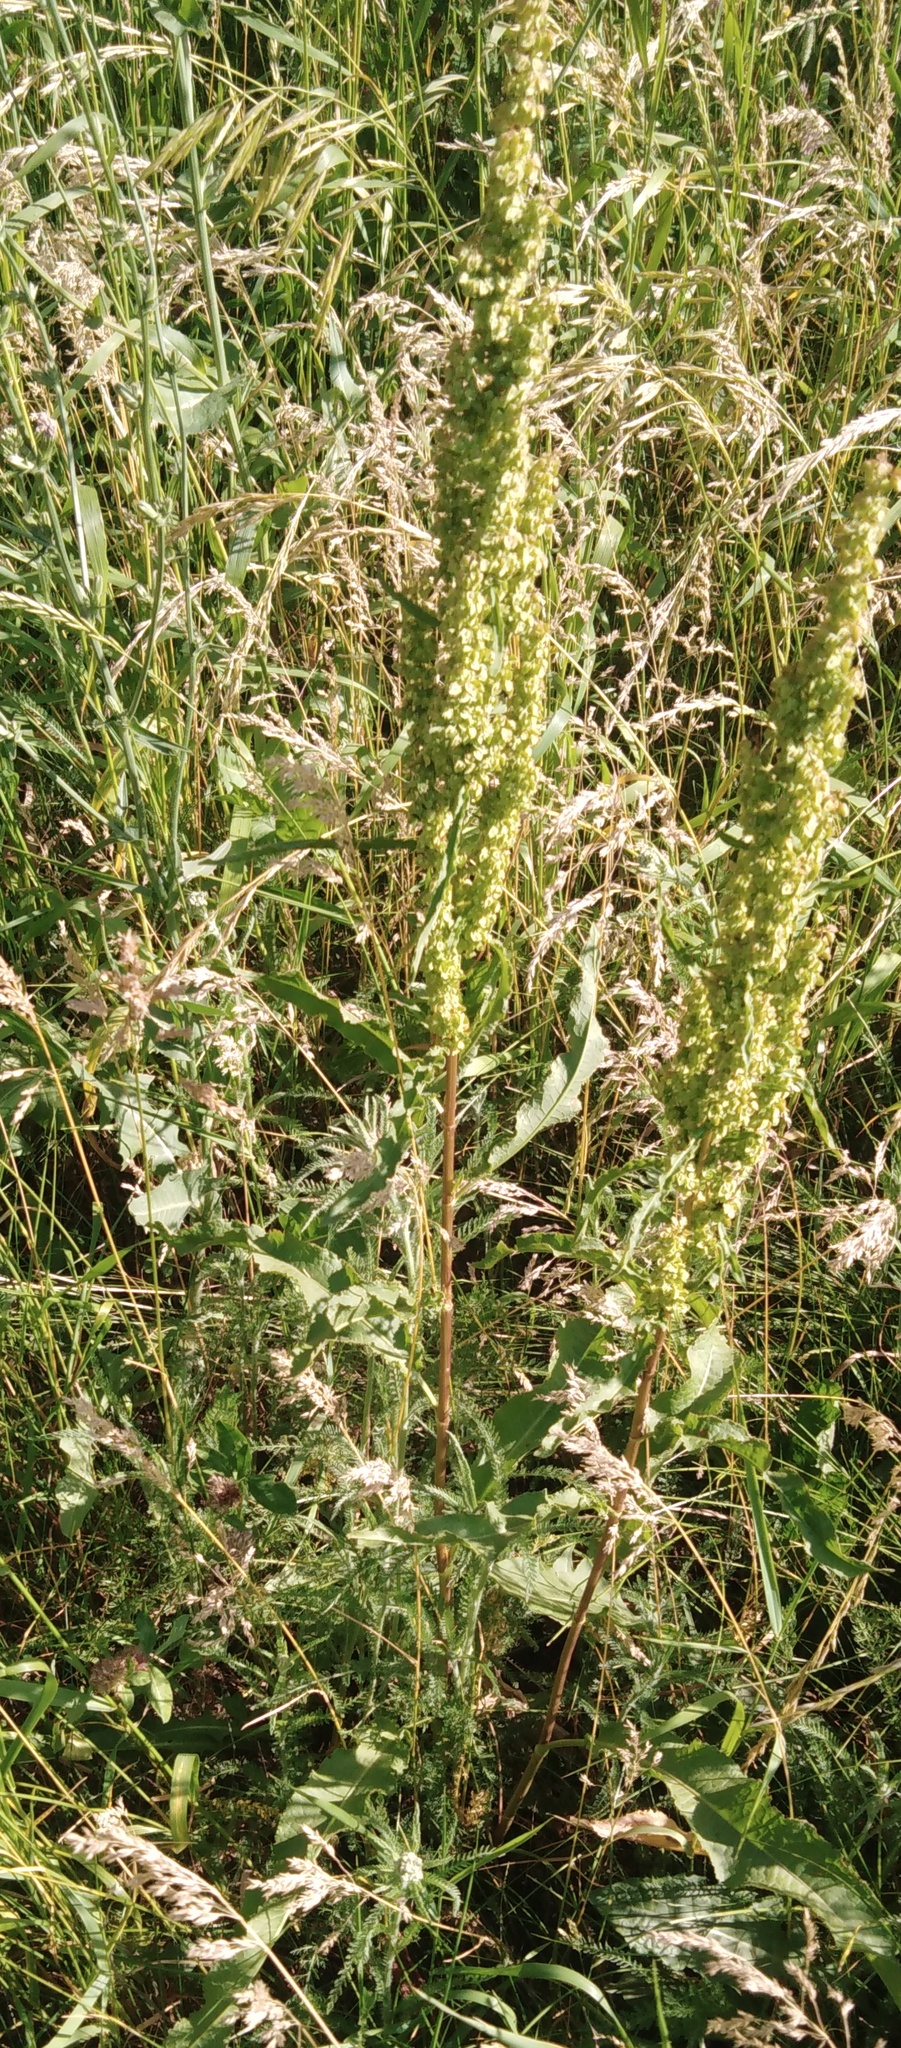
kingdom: Plantae
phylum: Tracheophyta
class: Magnoliopsida
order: Caryophyllales
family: Polygonaceae
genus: Rumex
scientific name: Rumex crispus
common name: Curled dock
